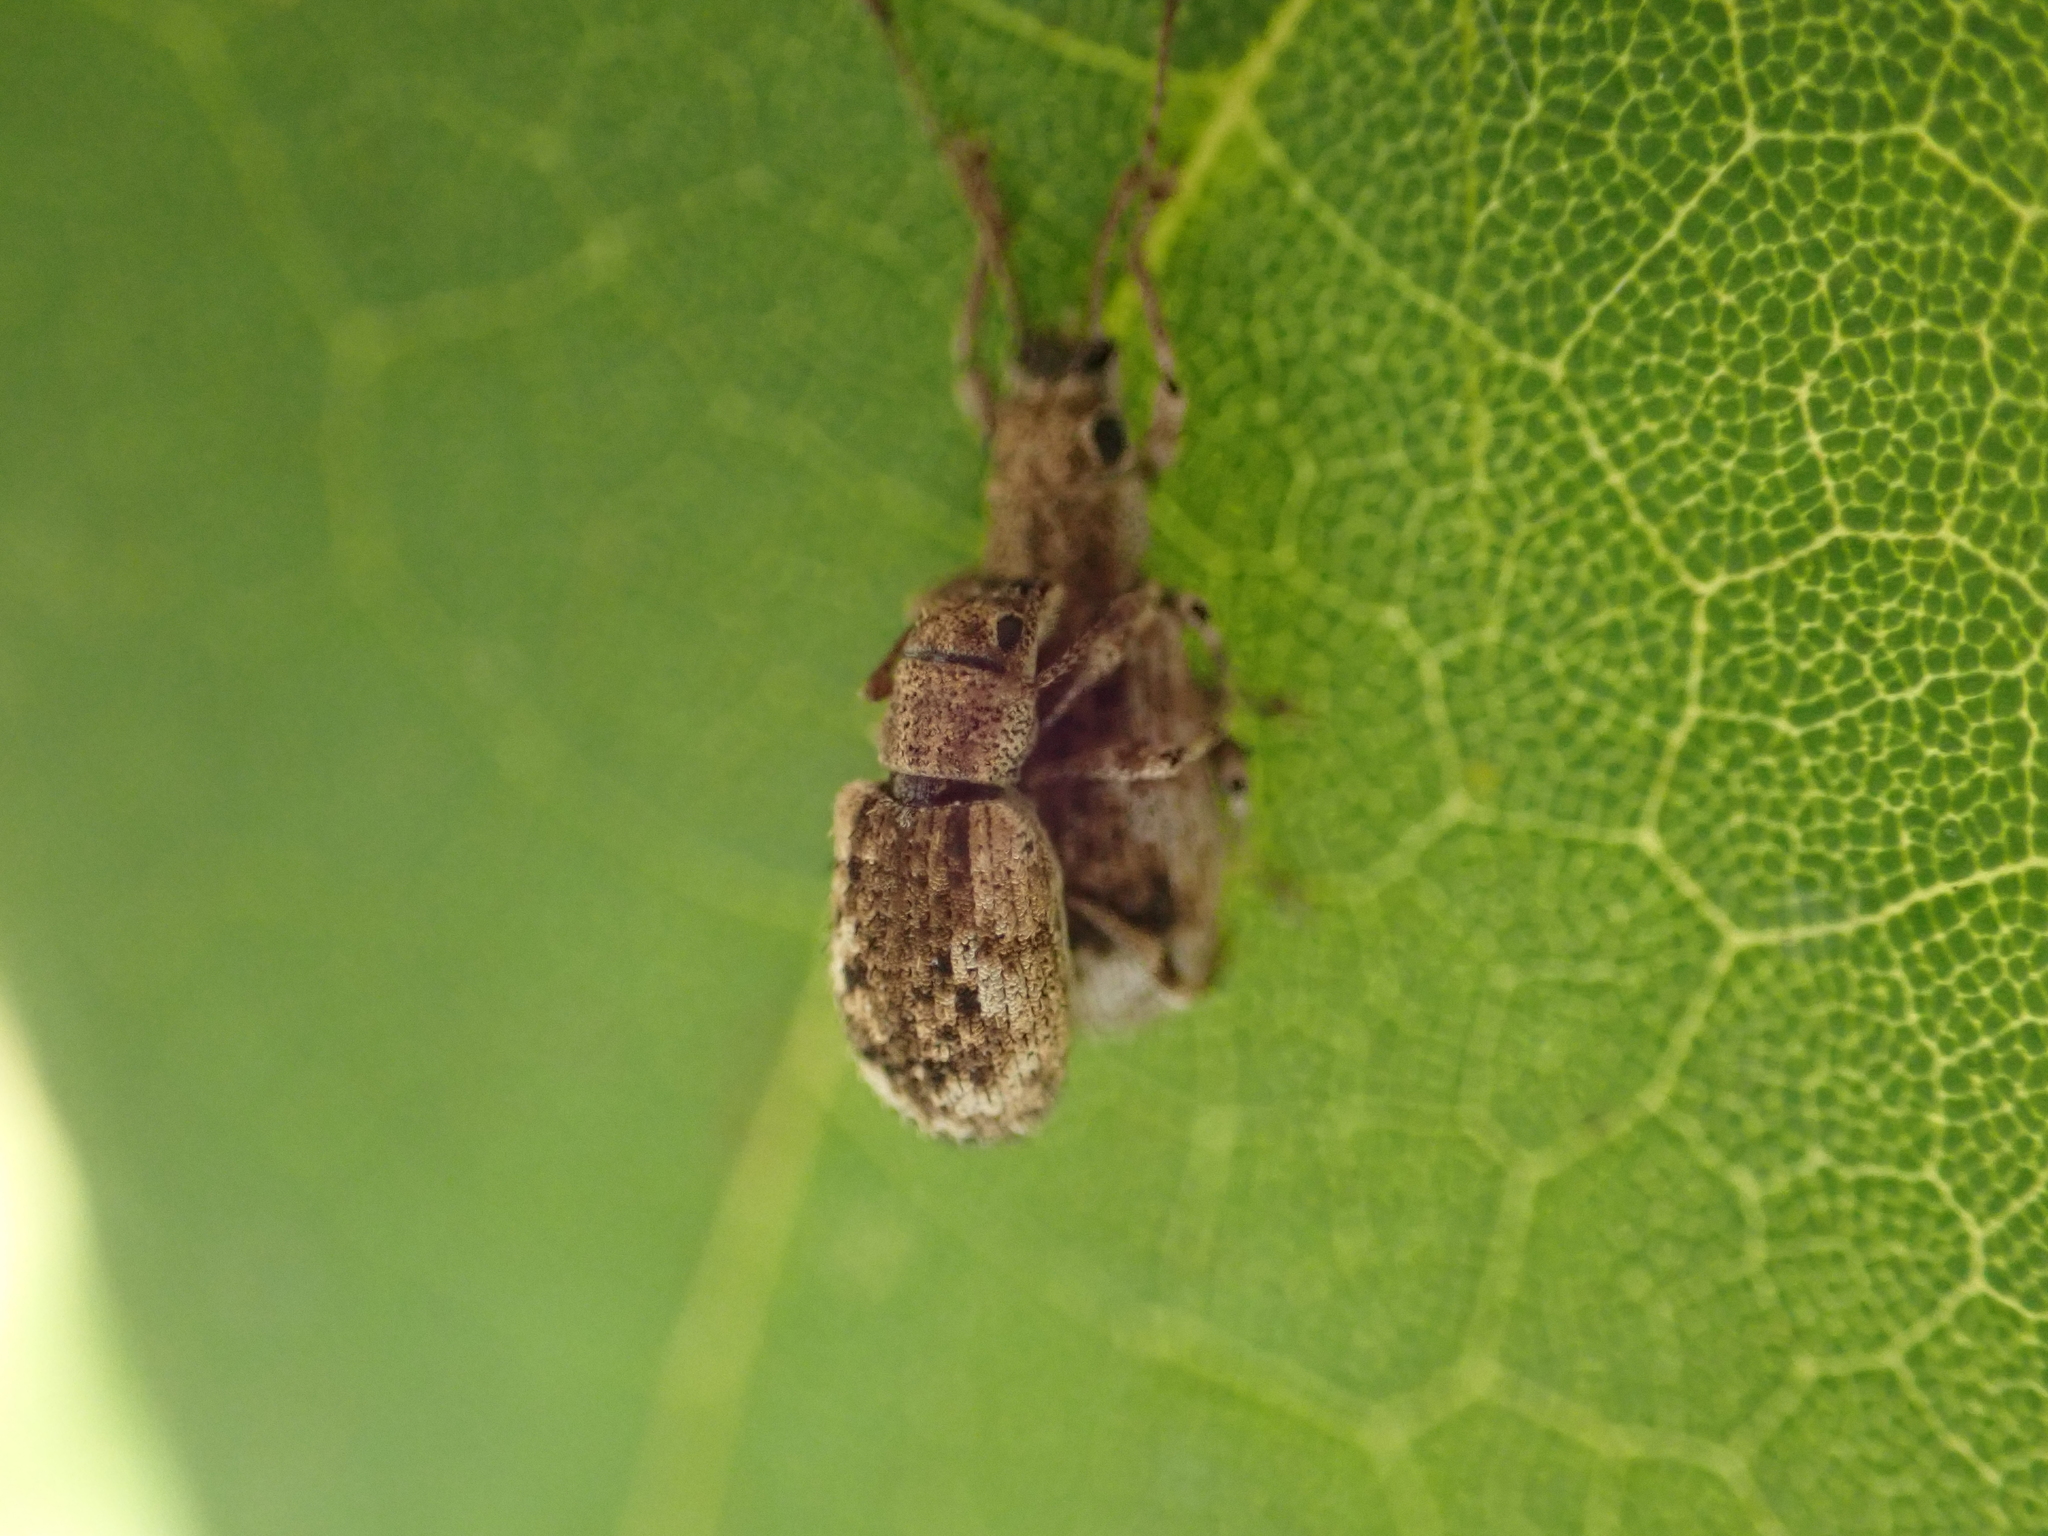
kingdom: Animalia
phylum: Arthropoda
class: Insecta
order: Coleoptera
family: Curculionidae
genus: Pseudoedophrys
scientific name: Pseudoedophrys hilleri
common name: Weevil
